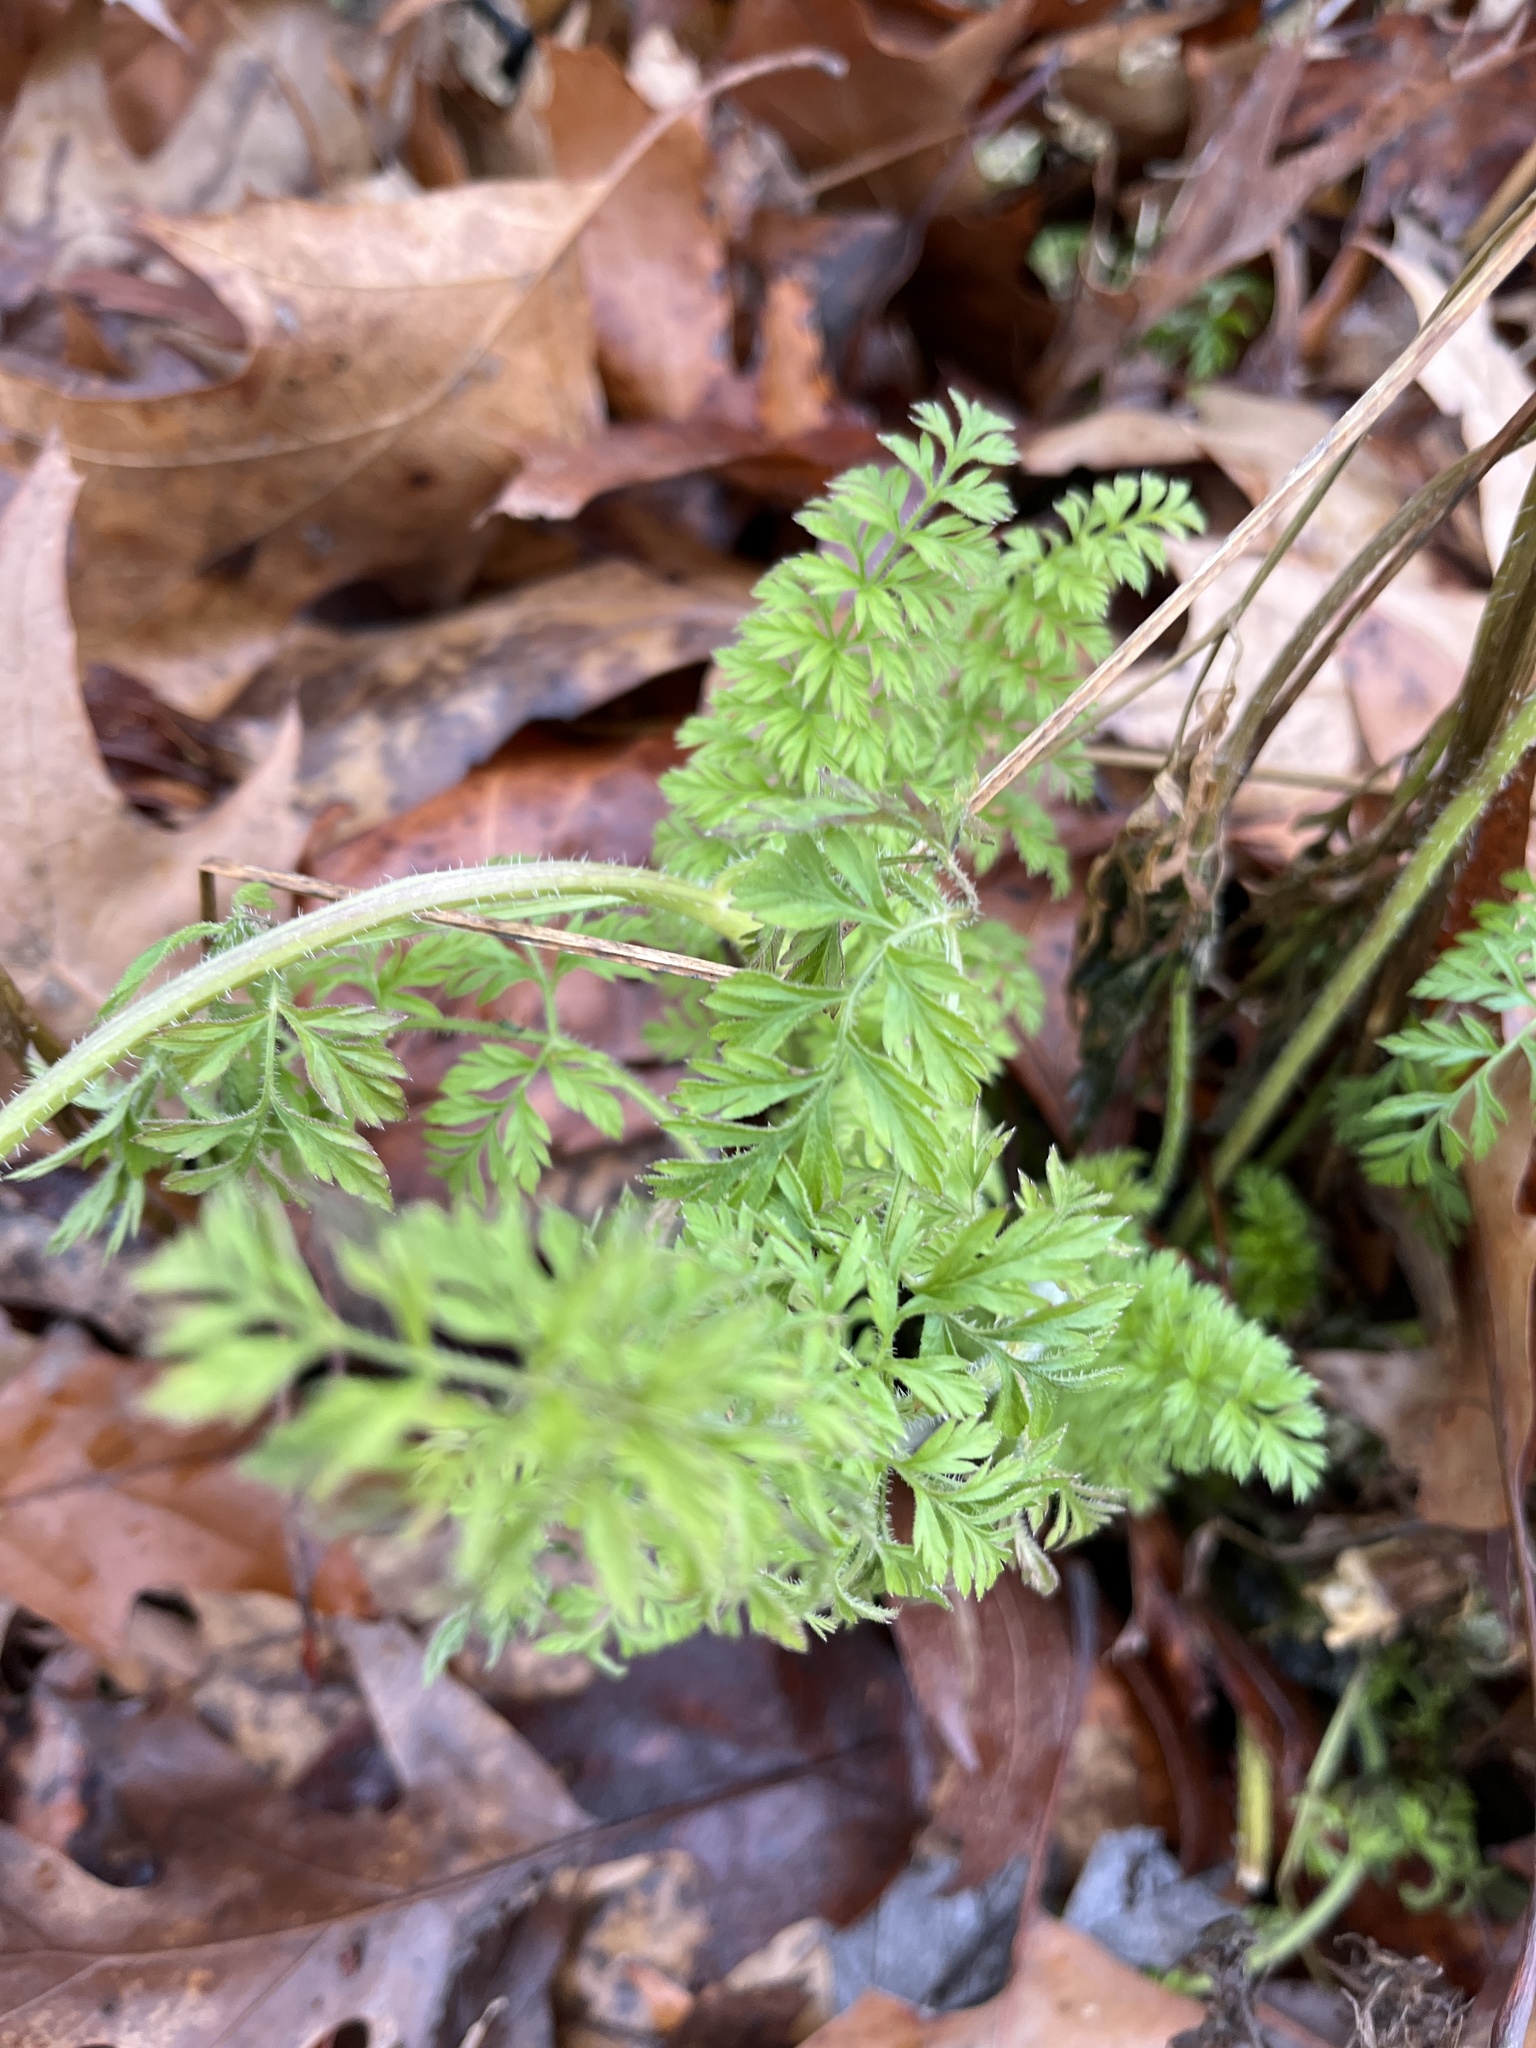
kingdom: Plantae
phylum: Tracheophyta
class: Magnoliopsida
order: Apiales
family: Apiaceae
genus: Daucus
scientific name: Daucus carota
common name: Wild carrot
